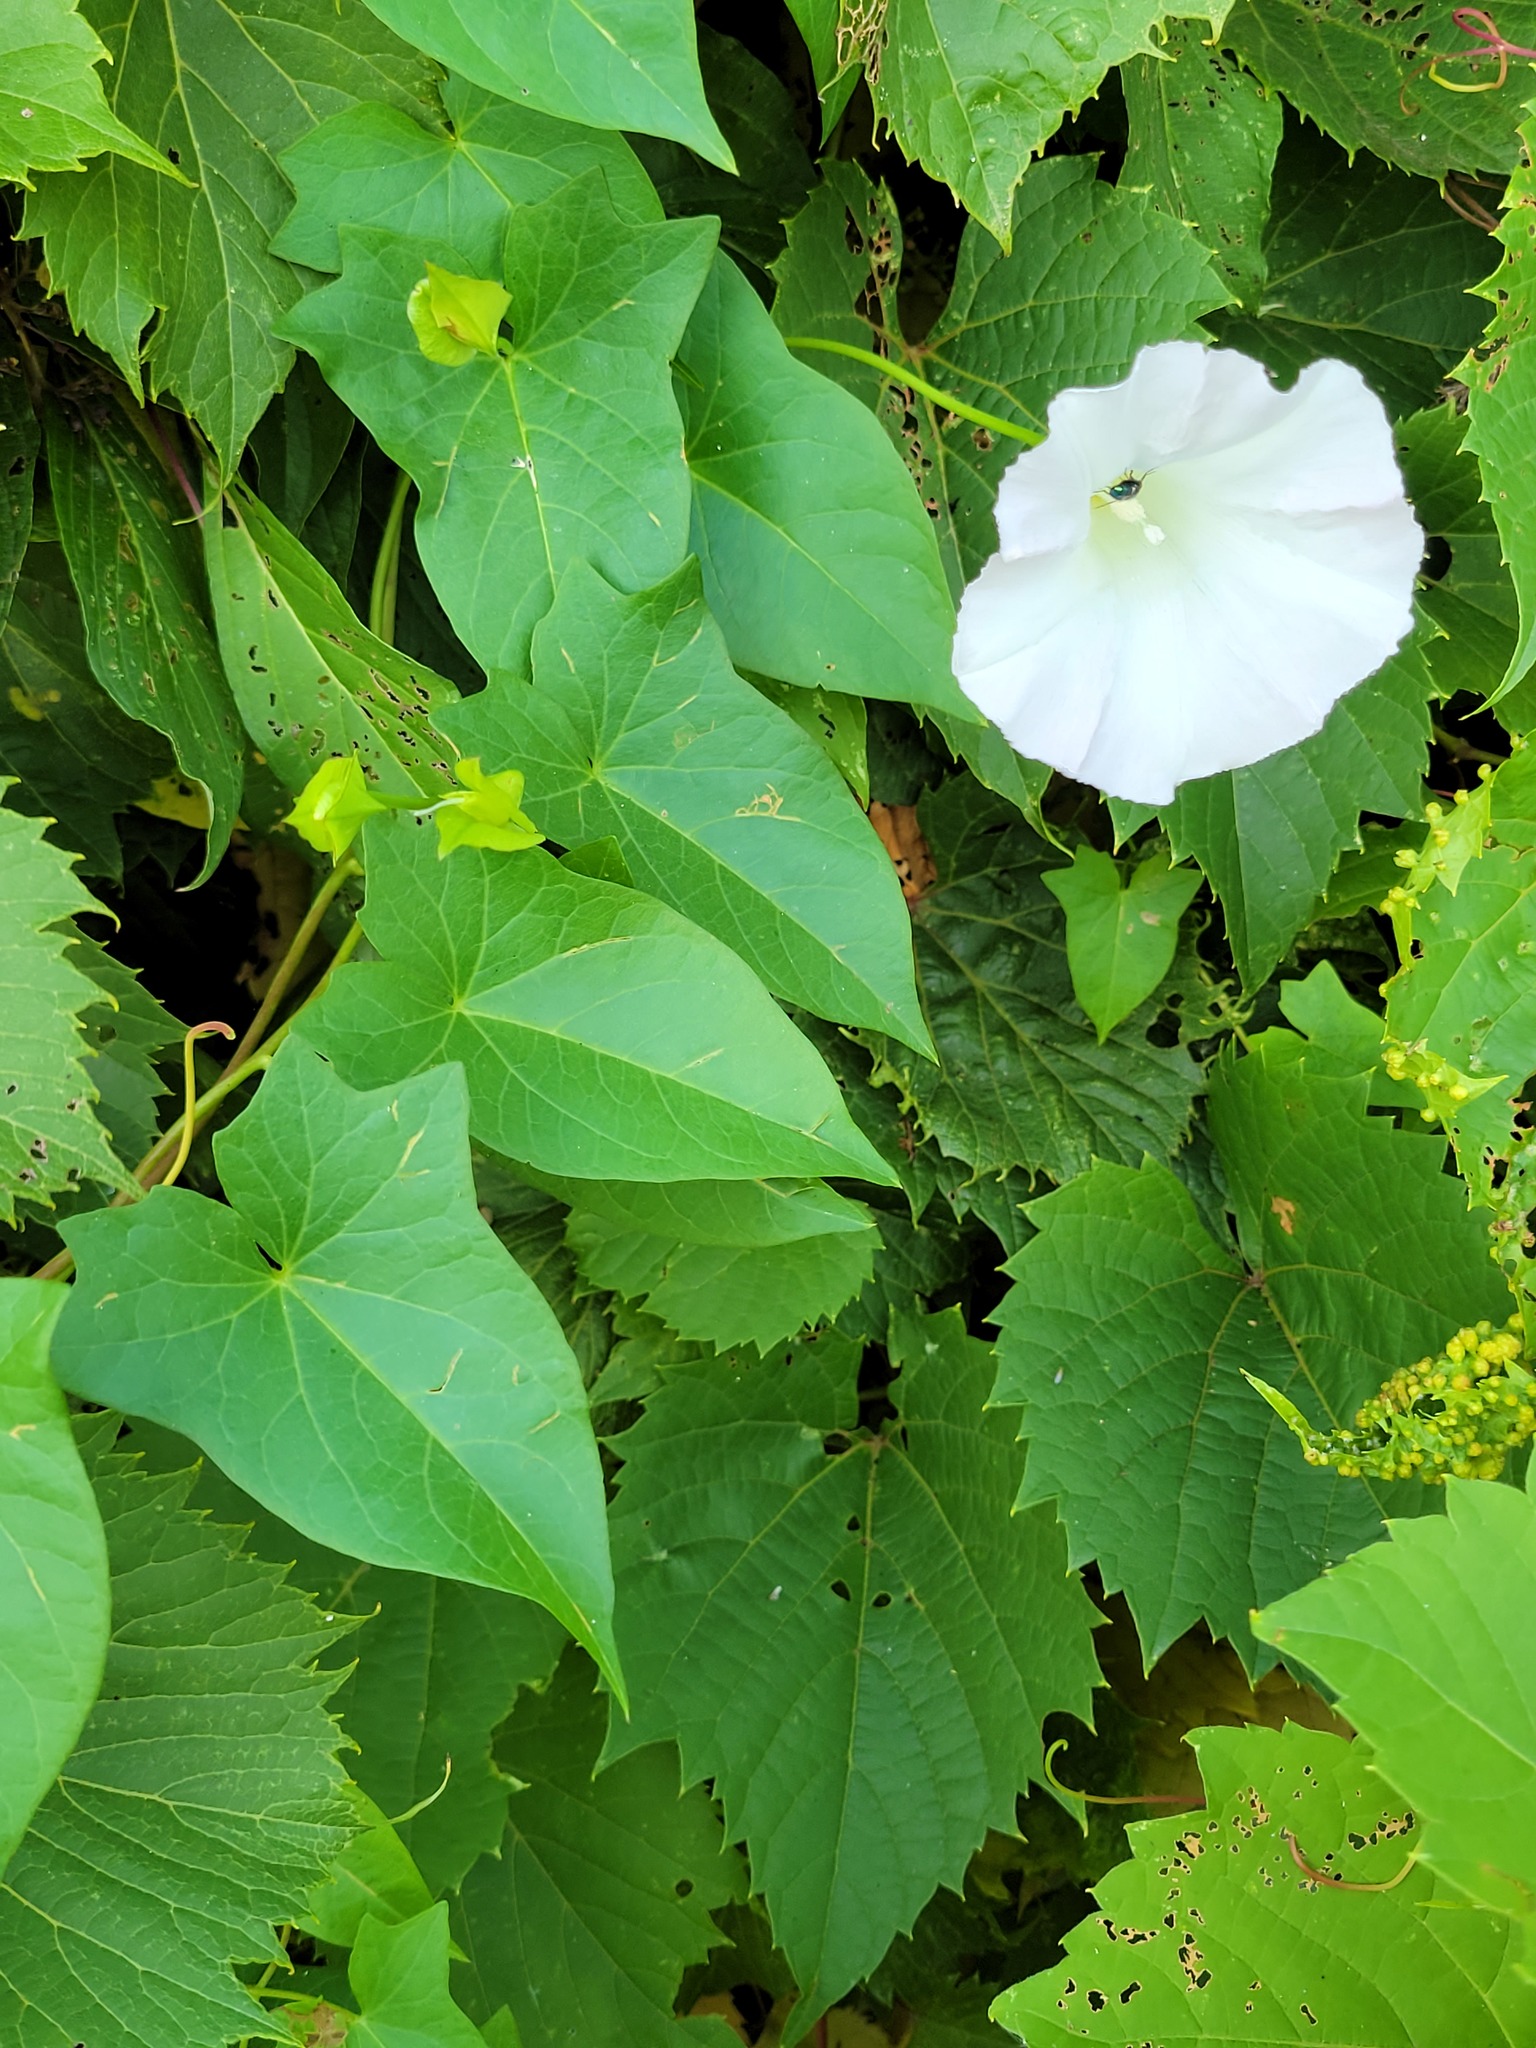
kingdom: Plantae
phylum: Tracheophyta
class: Magnoliopsida
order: Solanales
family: Convolvulaceae
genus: Calystegia
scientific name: Calystegia sepium
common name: Hedge bindweed
